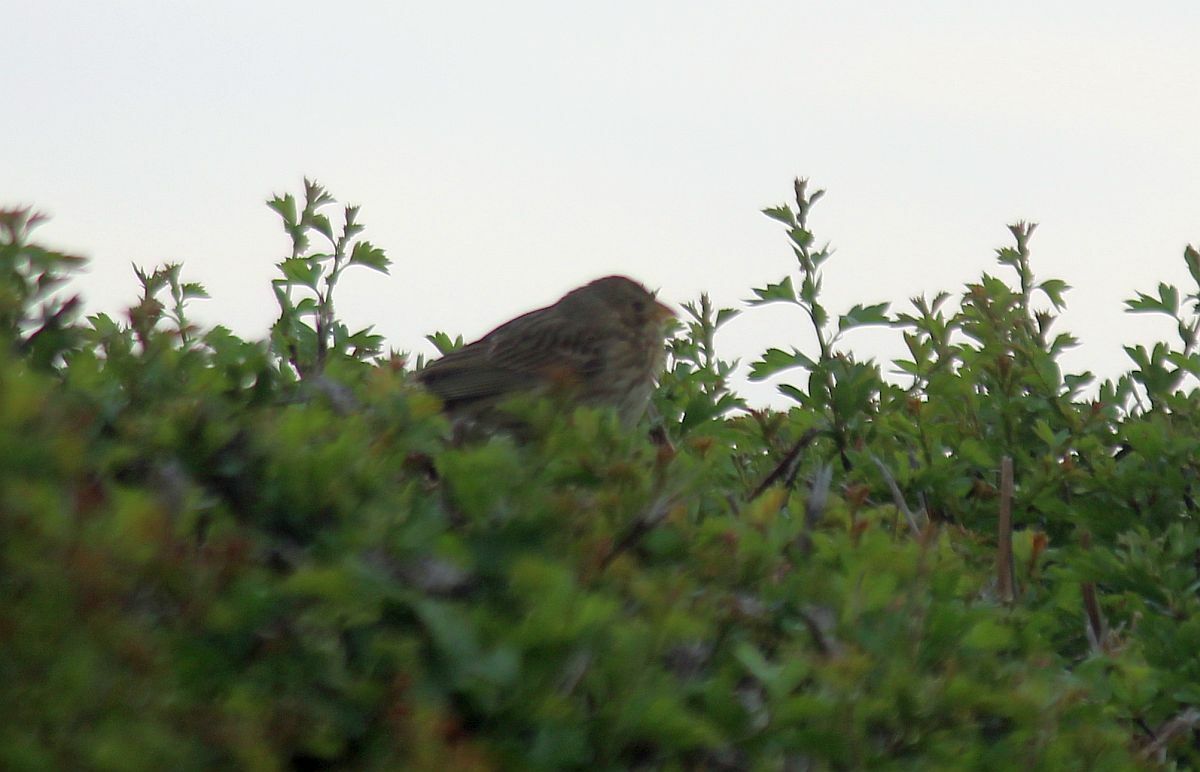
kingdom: Animalia
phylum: Chordata
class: Aves
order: Passeriformes
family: Emberizidae
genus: Emberiza
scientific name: Emberiza calandra
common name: Corn bunting
